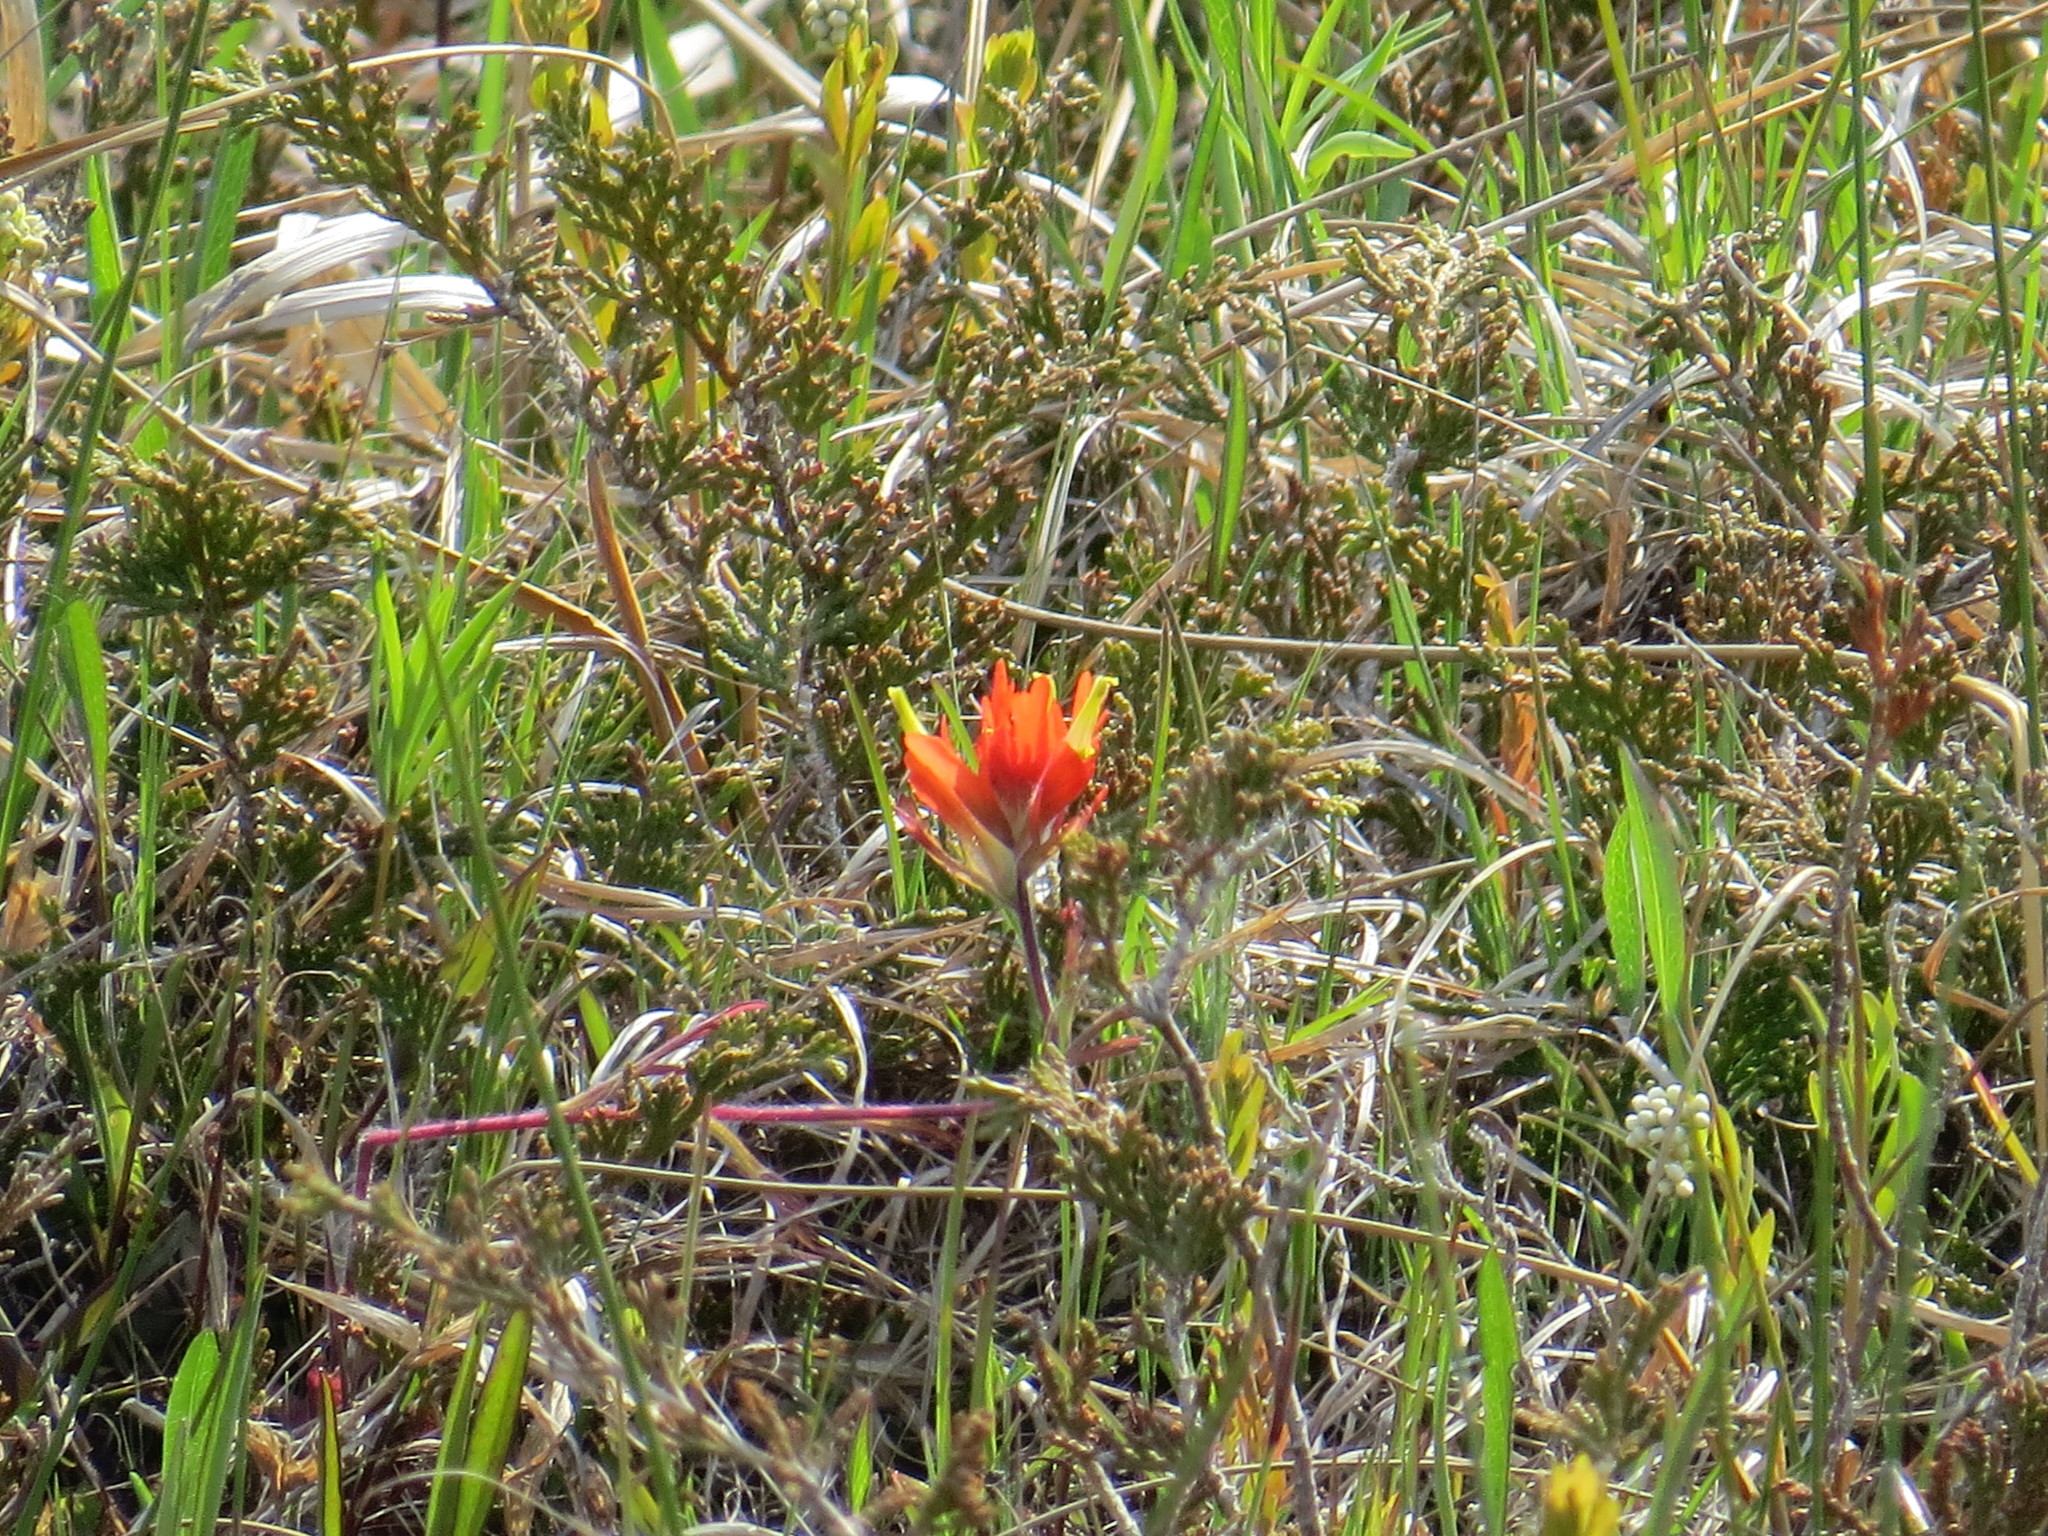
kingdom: Plantae
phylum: Tracheophyta
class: Magnoliopsida
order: Lamiales
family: Orobanchaceae
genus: Castilleja
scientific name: Castilleja coccinea
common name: Scarlet paintbrush
